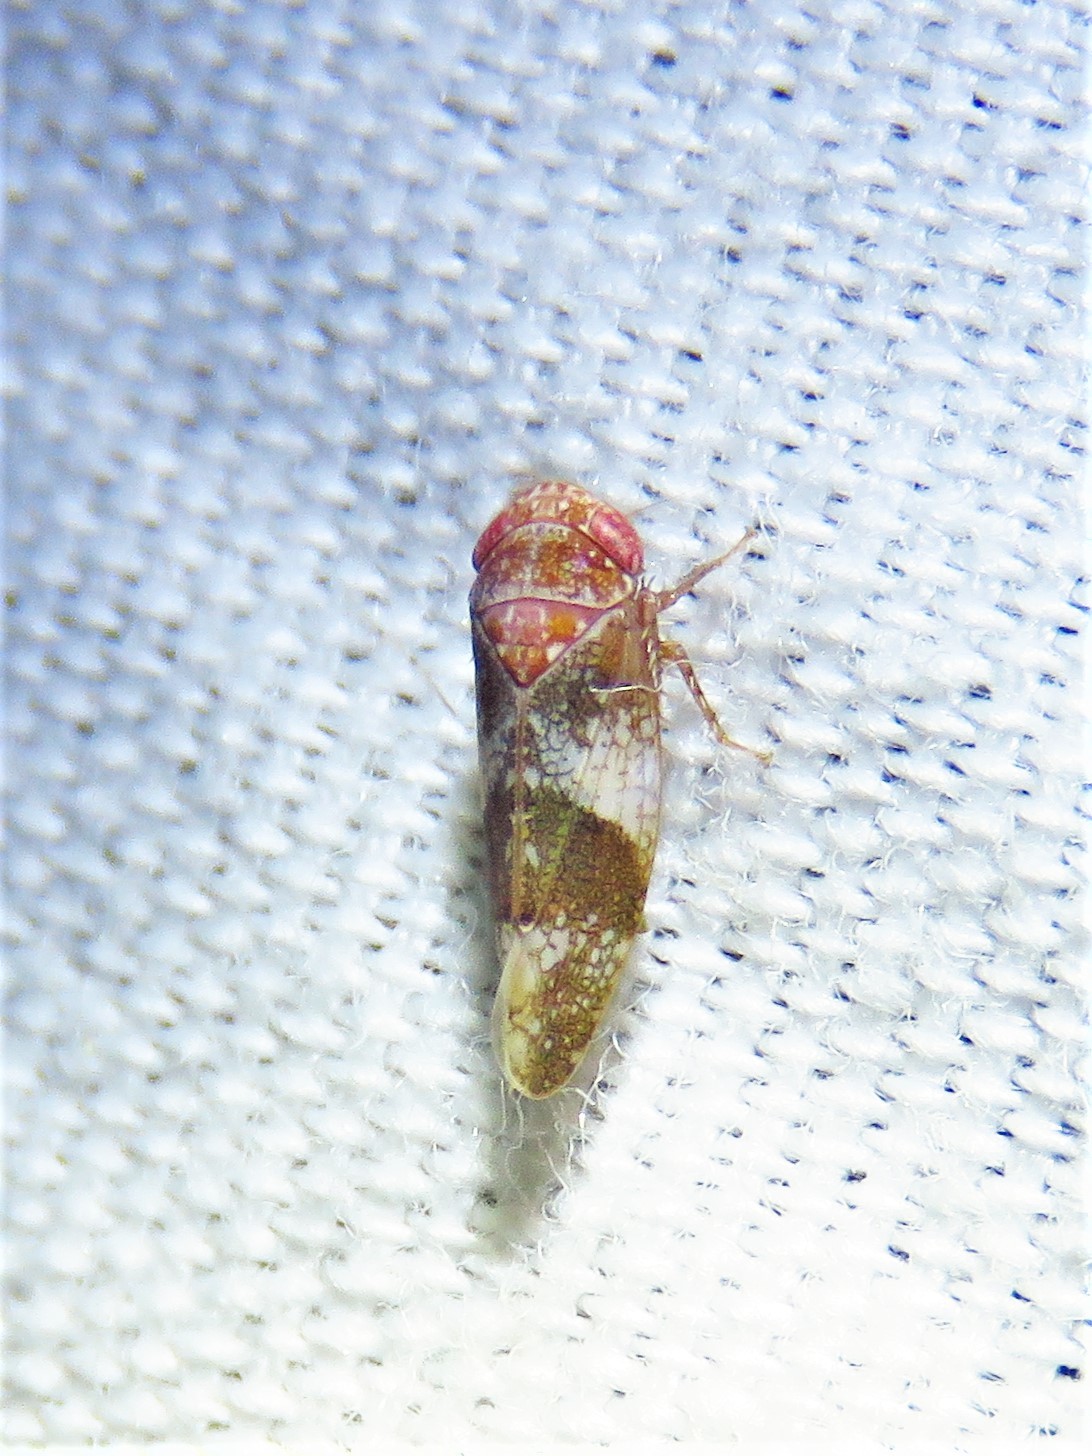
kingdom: Animalia
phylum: Arthropoda
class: Insecta
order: Hemiptera
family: Cicadellidae
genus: Norvellina
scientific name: Norvellina helenae
